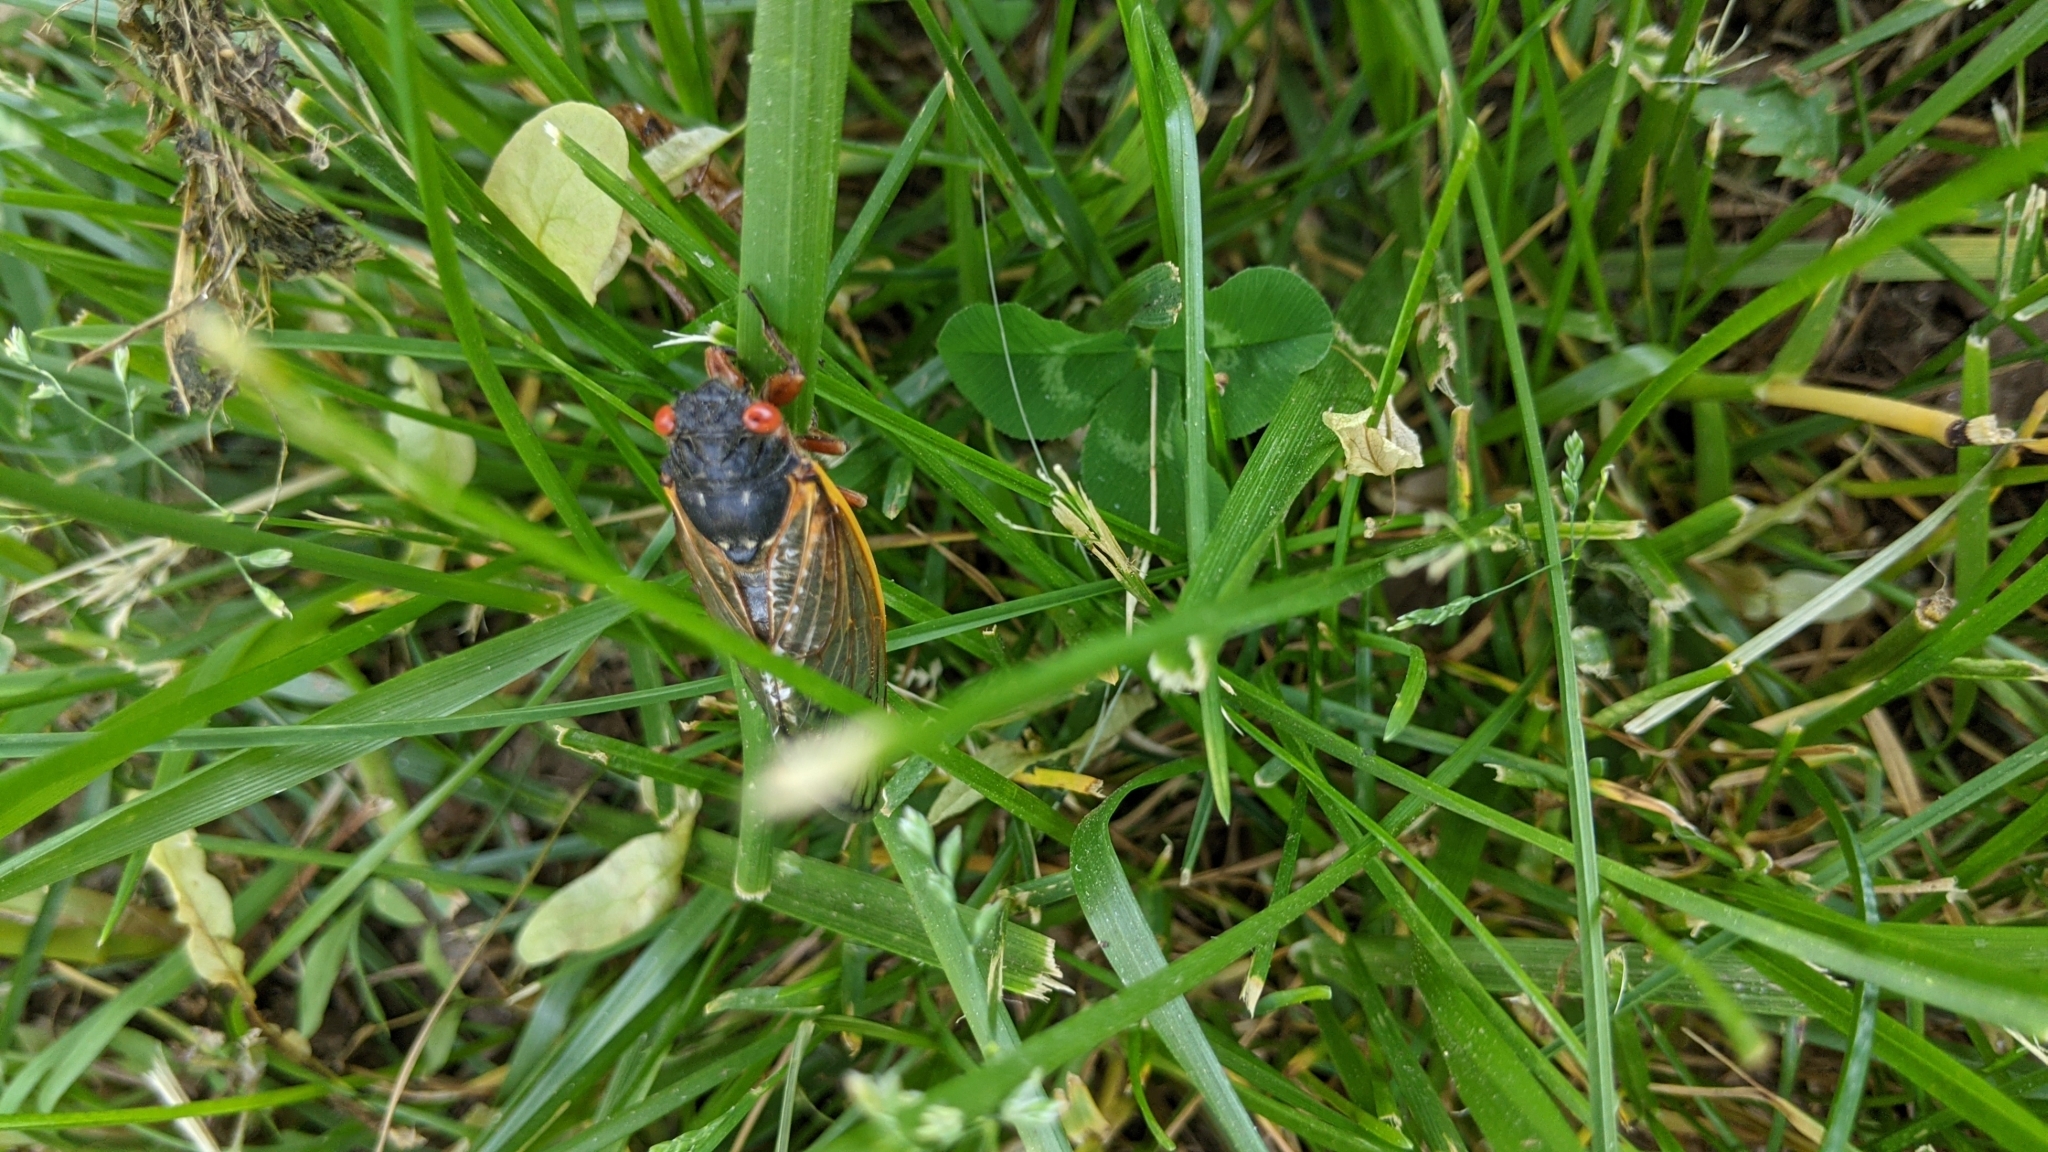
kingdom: Animalia
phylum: Arthropoda
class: Insecta
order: Hemiptera
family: Cicadidae
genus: Magicicada
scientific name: Magicicada septendecim
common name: Periodical cicada
